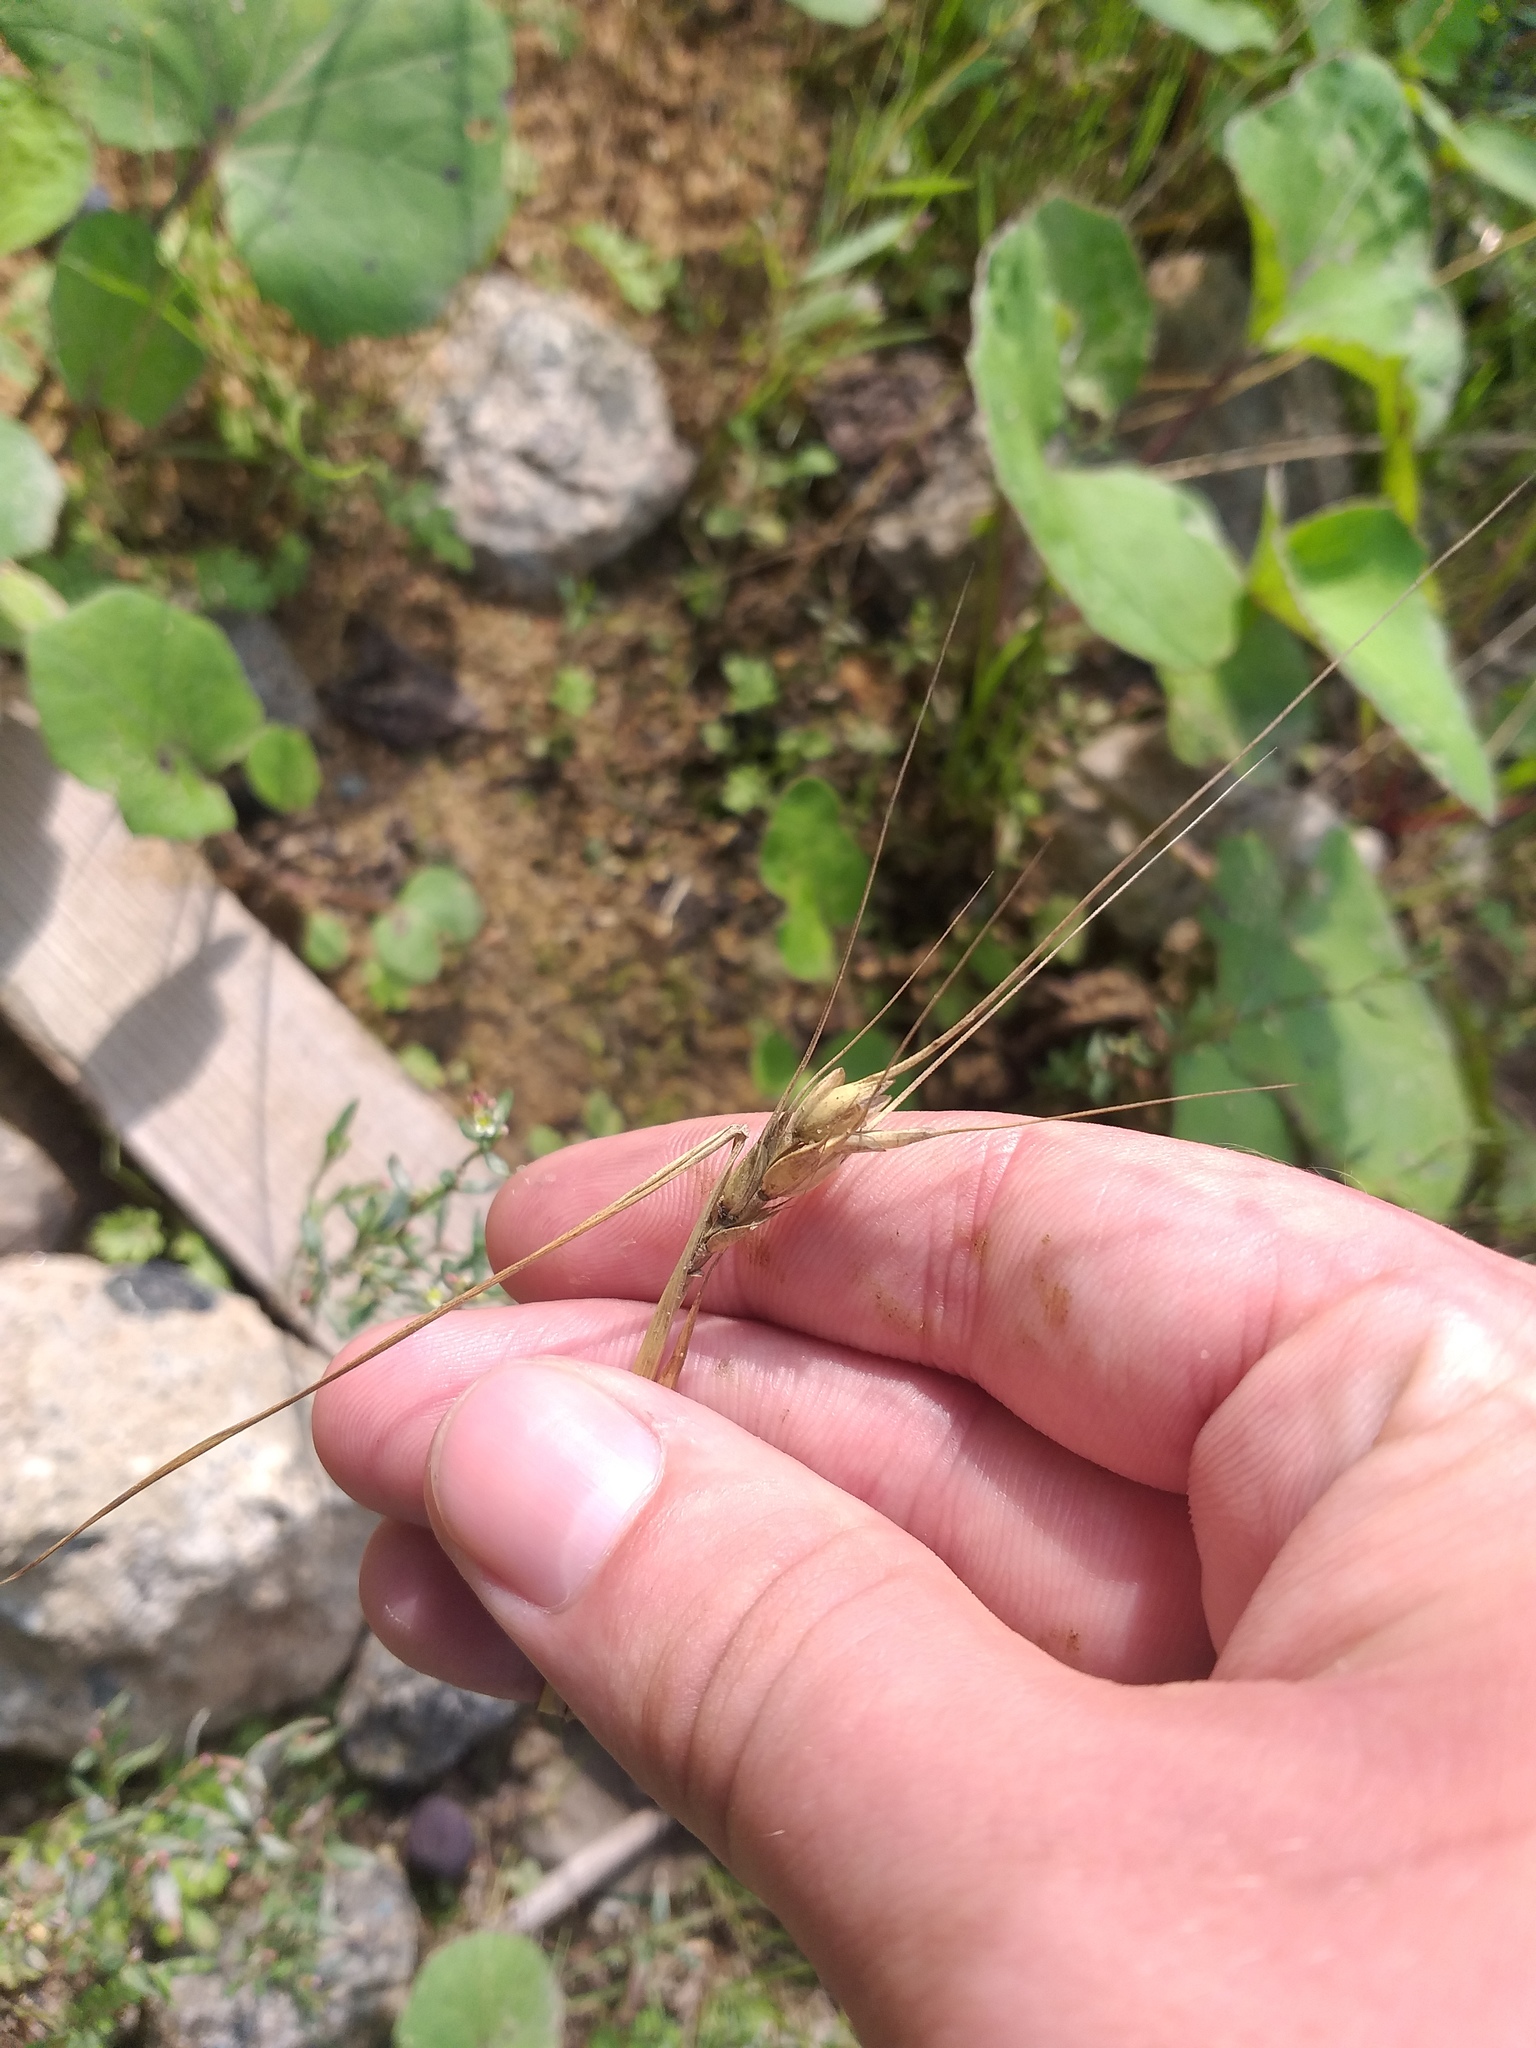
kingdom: Plantae
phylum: Tracheophyta
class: Liliopsida
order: Poales
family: Poaceae
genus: Triticum
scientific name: Triticum aestivum
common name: Common wheat
